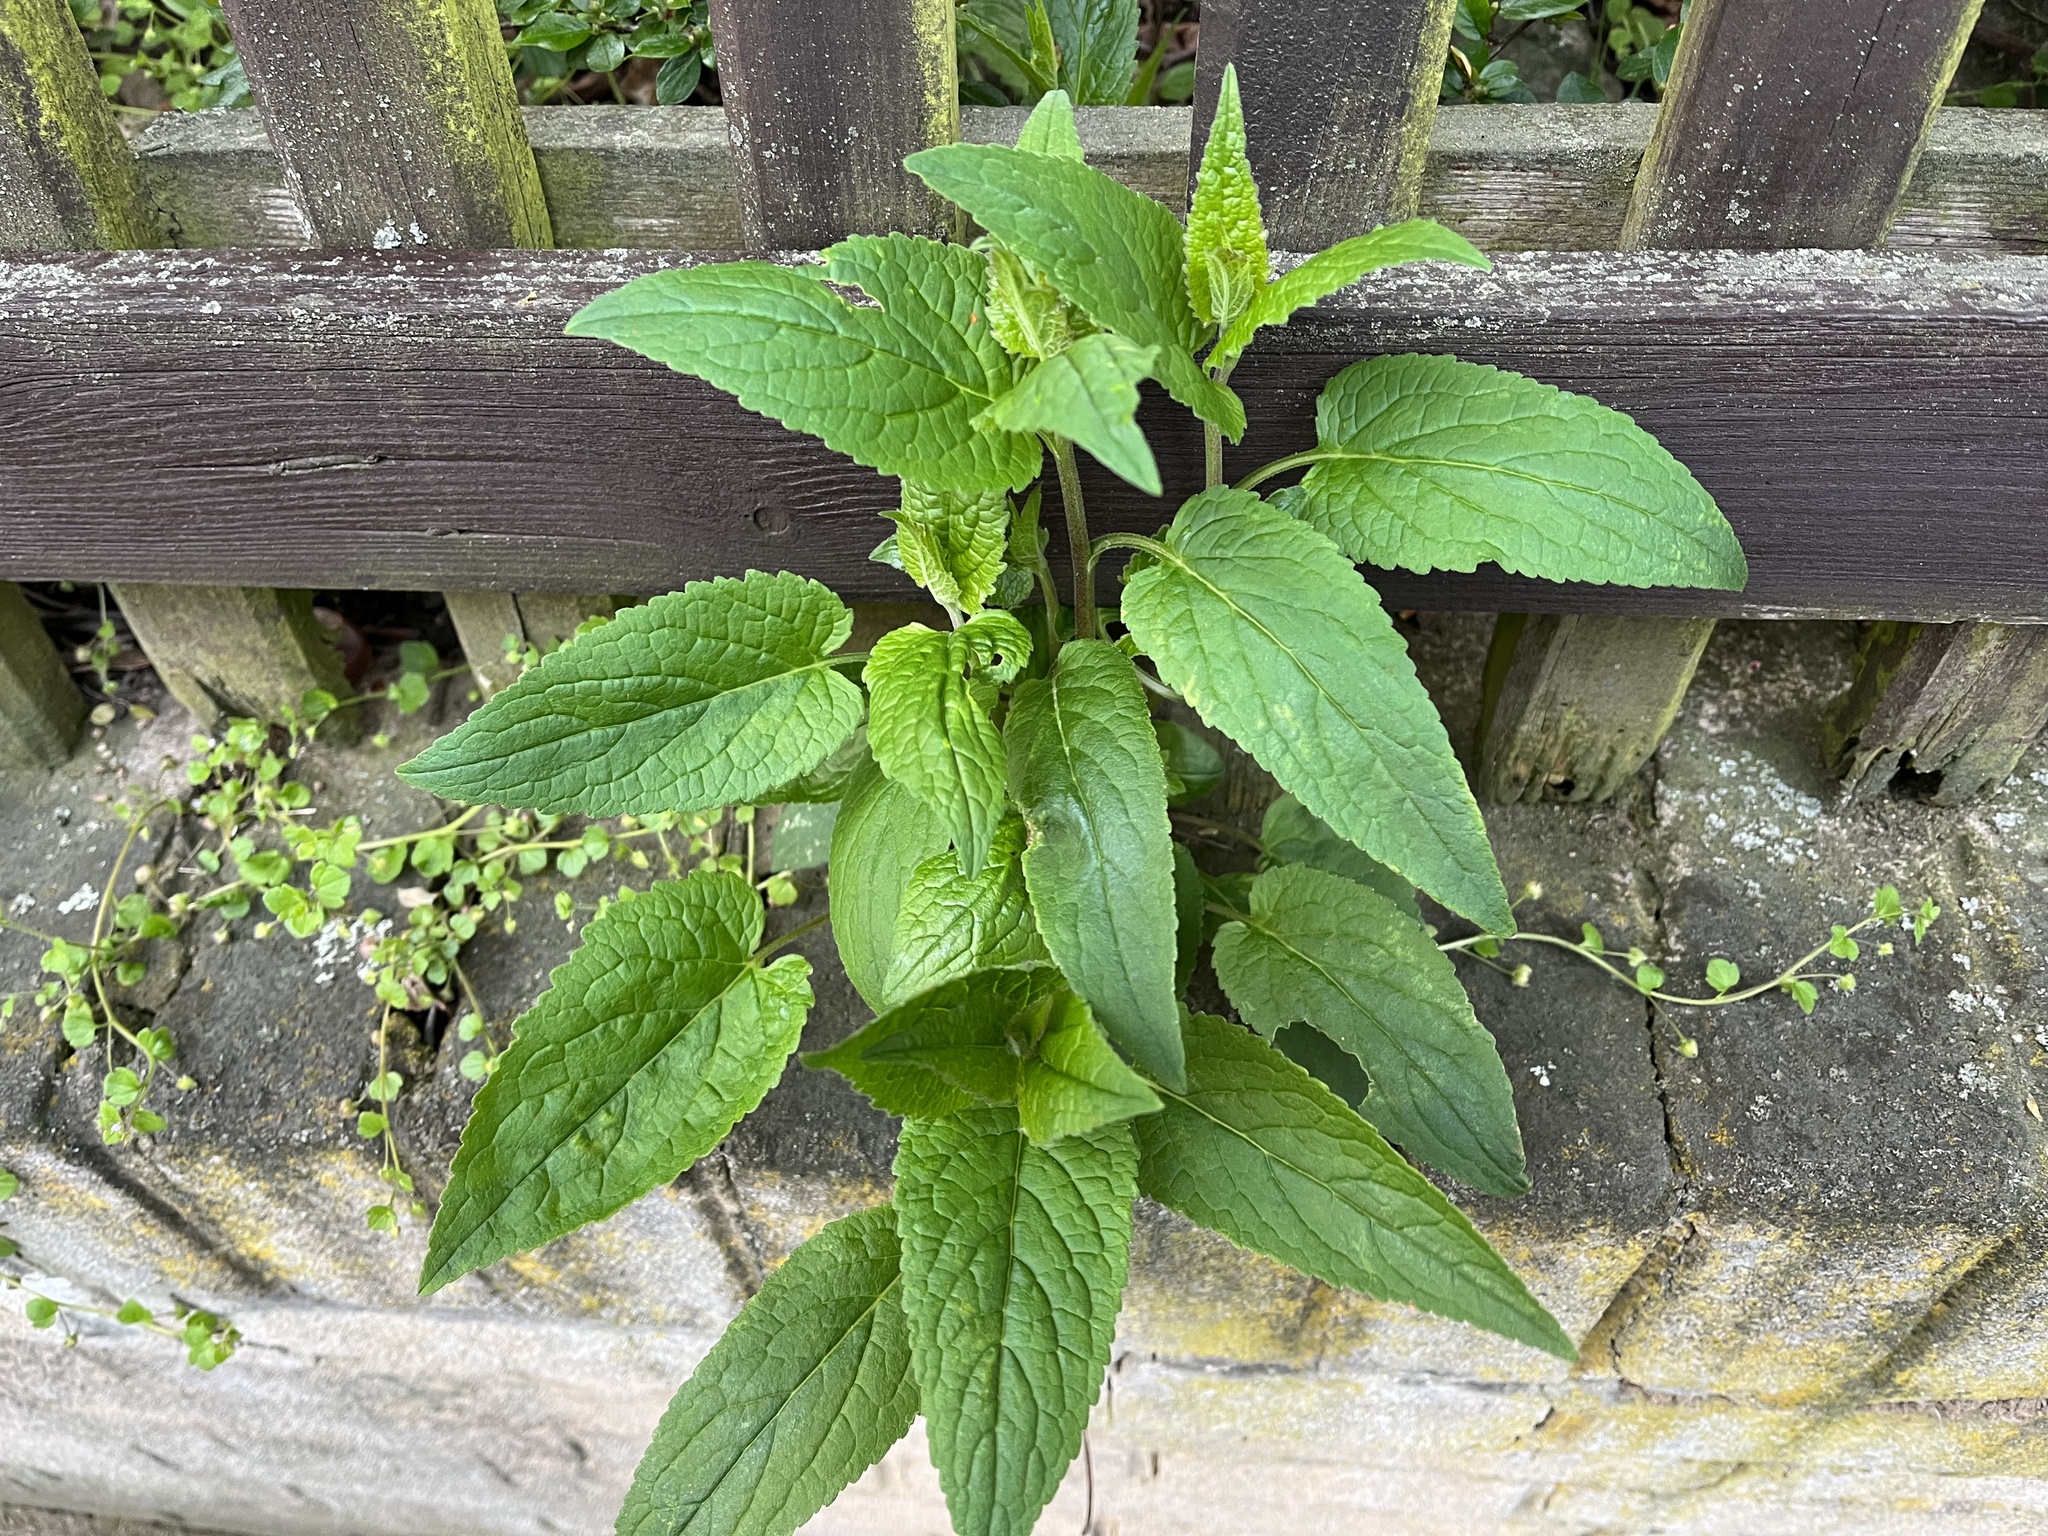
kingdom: Plantae
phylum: Tracheophyta
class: Magnoliopsida
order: Asterales
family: Campanulaceae
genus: Campanula
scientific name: Campanula rapunculoides
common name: Creeping bellflower
